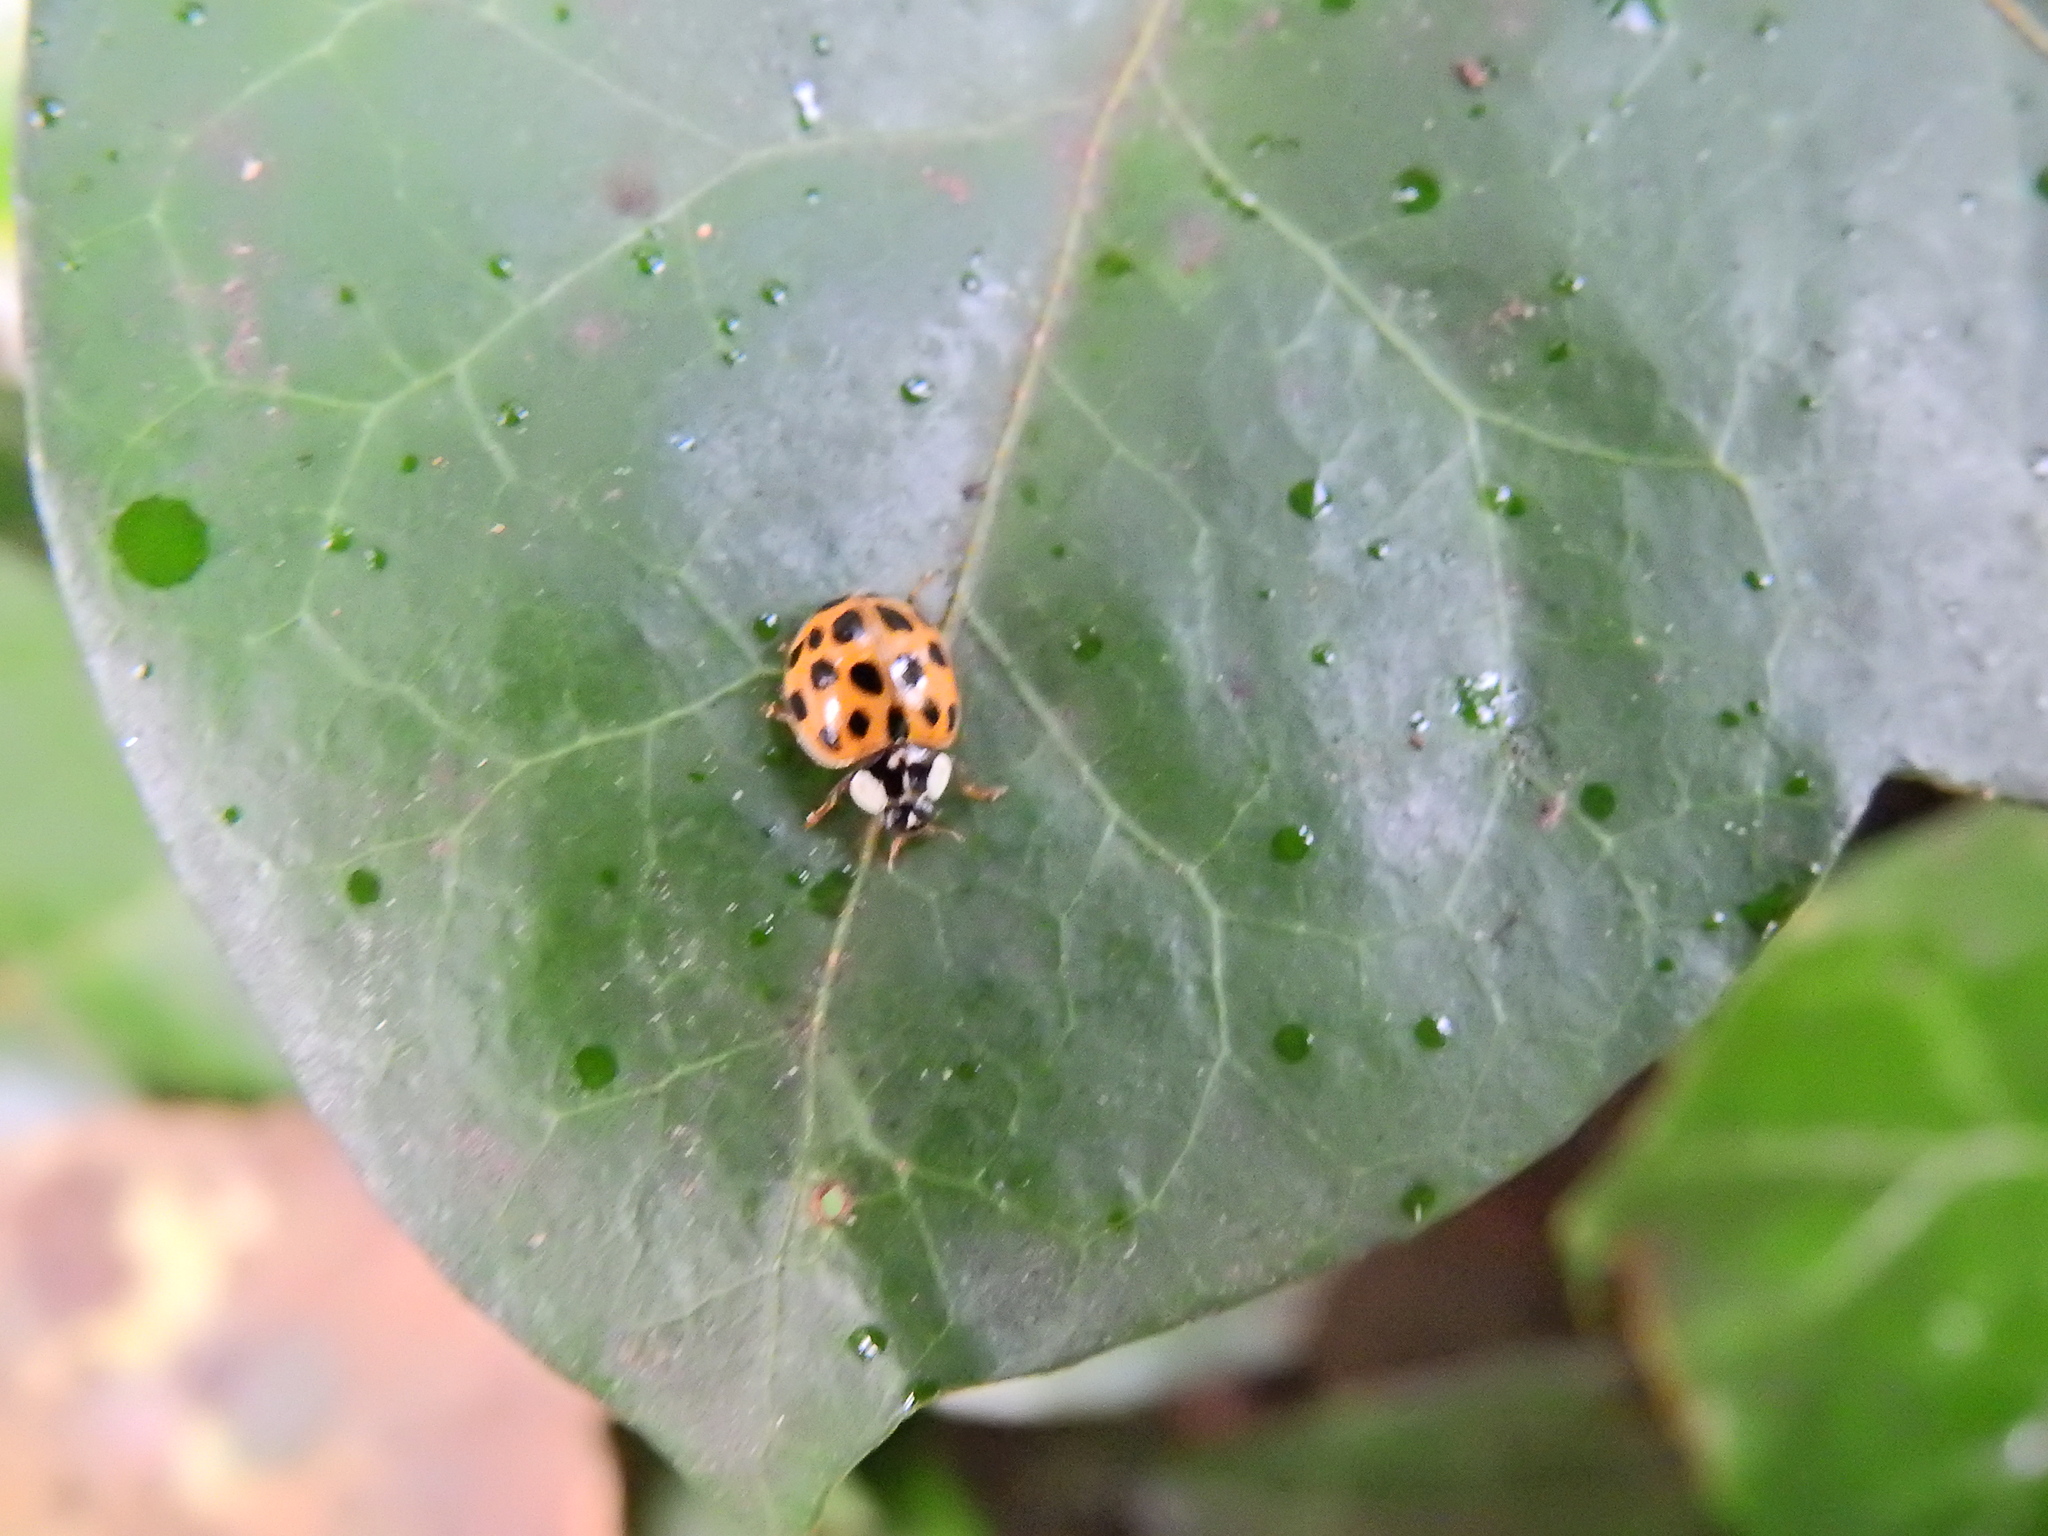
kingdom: Animalia
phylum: Arthropoda
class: Insecta
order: Coleoptera
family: Coccinellidae
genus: Harmonia
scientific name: Harmonia axyridis
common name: Harlequin ladybird
